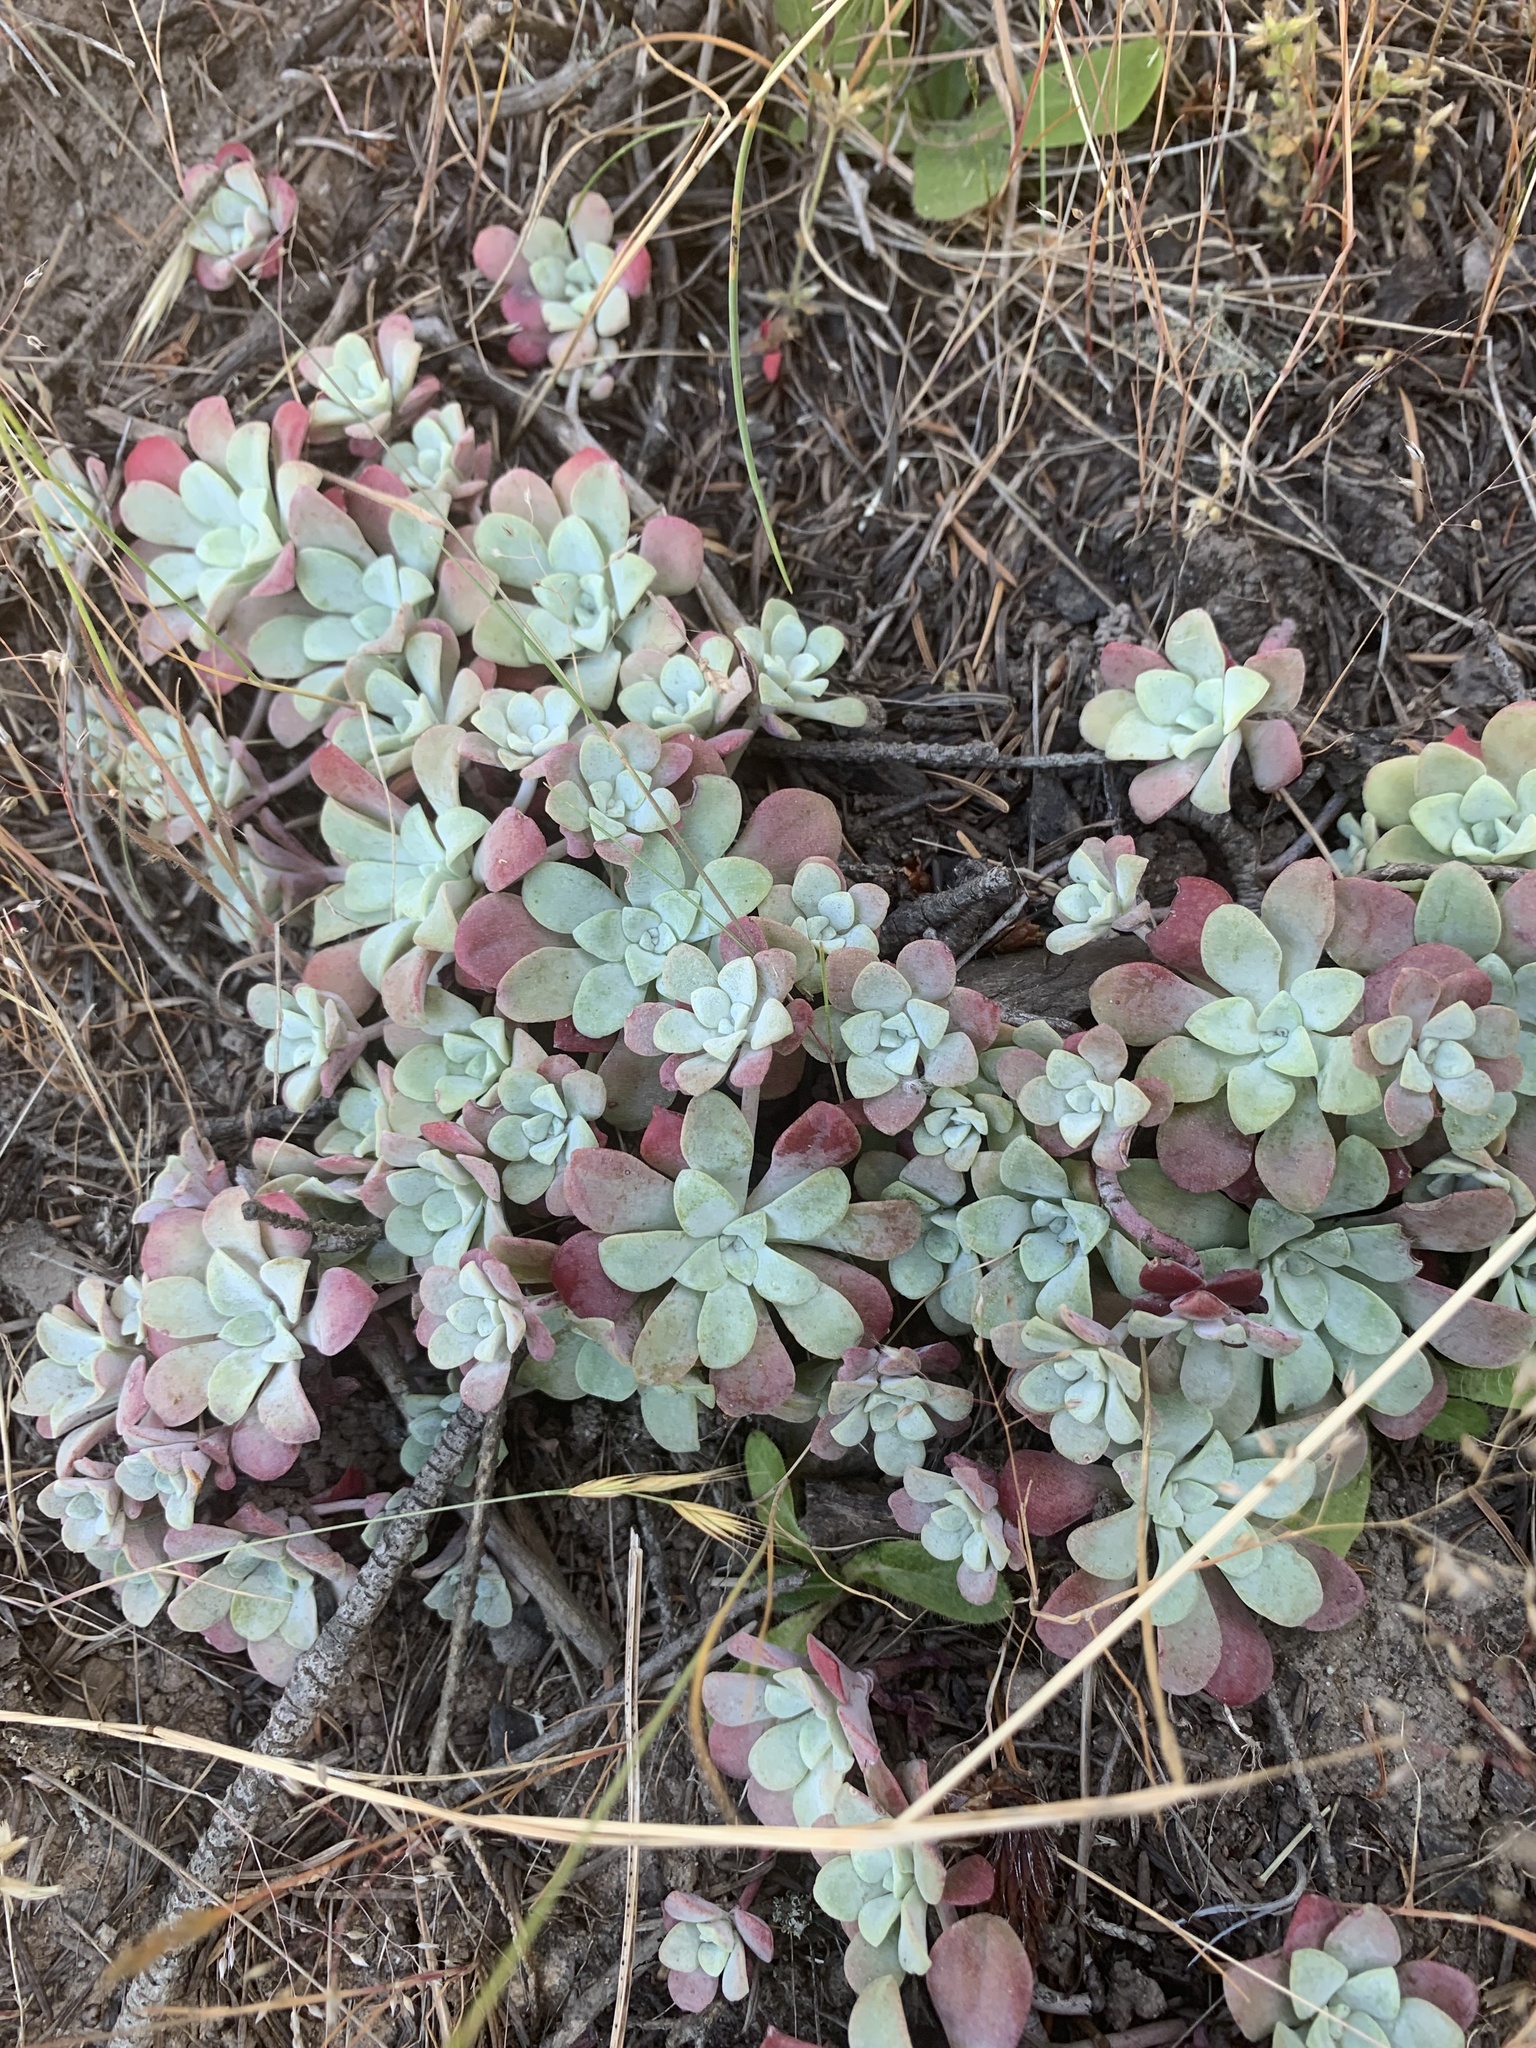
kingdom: Plantae
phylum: Tracheophyta
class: Magnoliopsida
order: Saxifragales
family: Crassulaceae
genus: Sedum
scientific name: Sedum spathulifolium
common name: Colorado stonecrop
